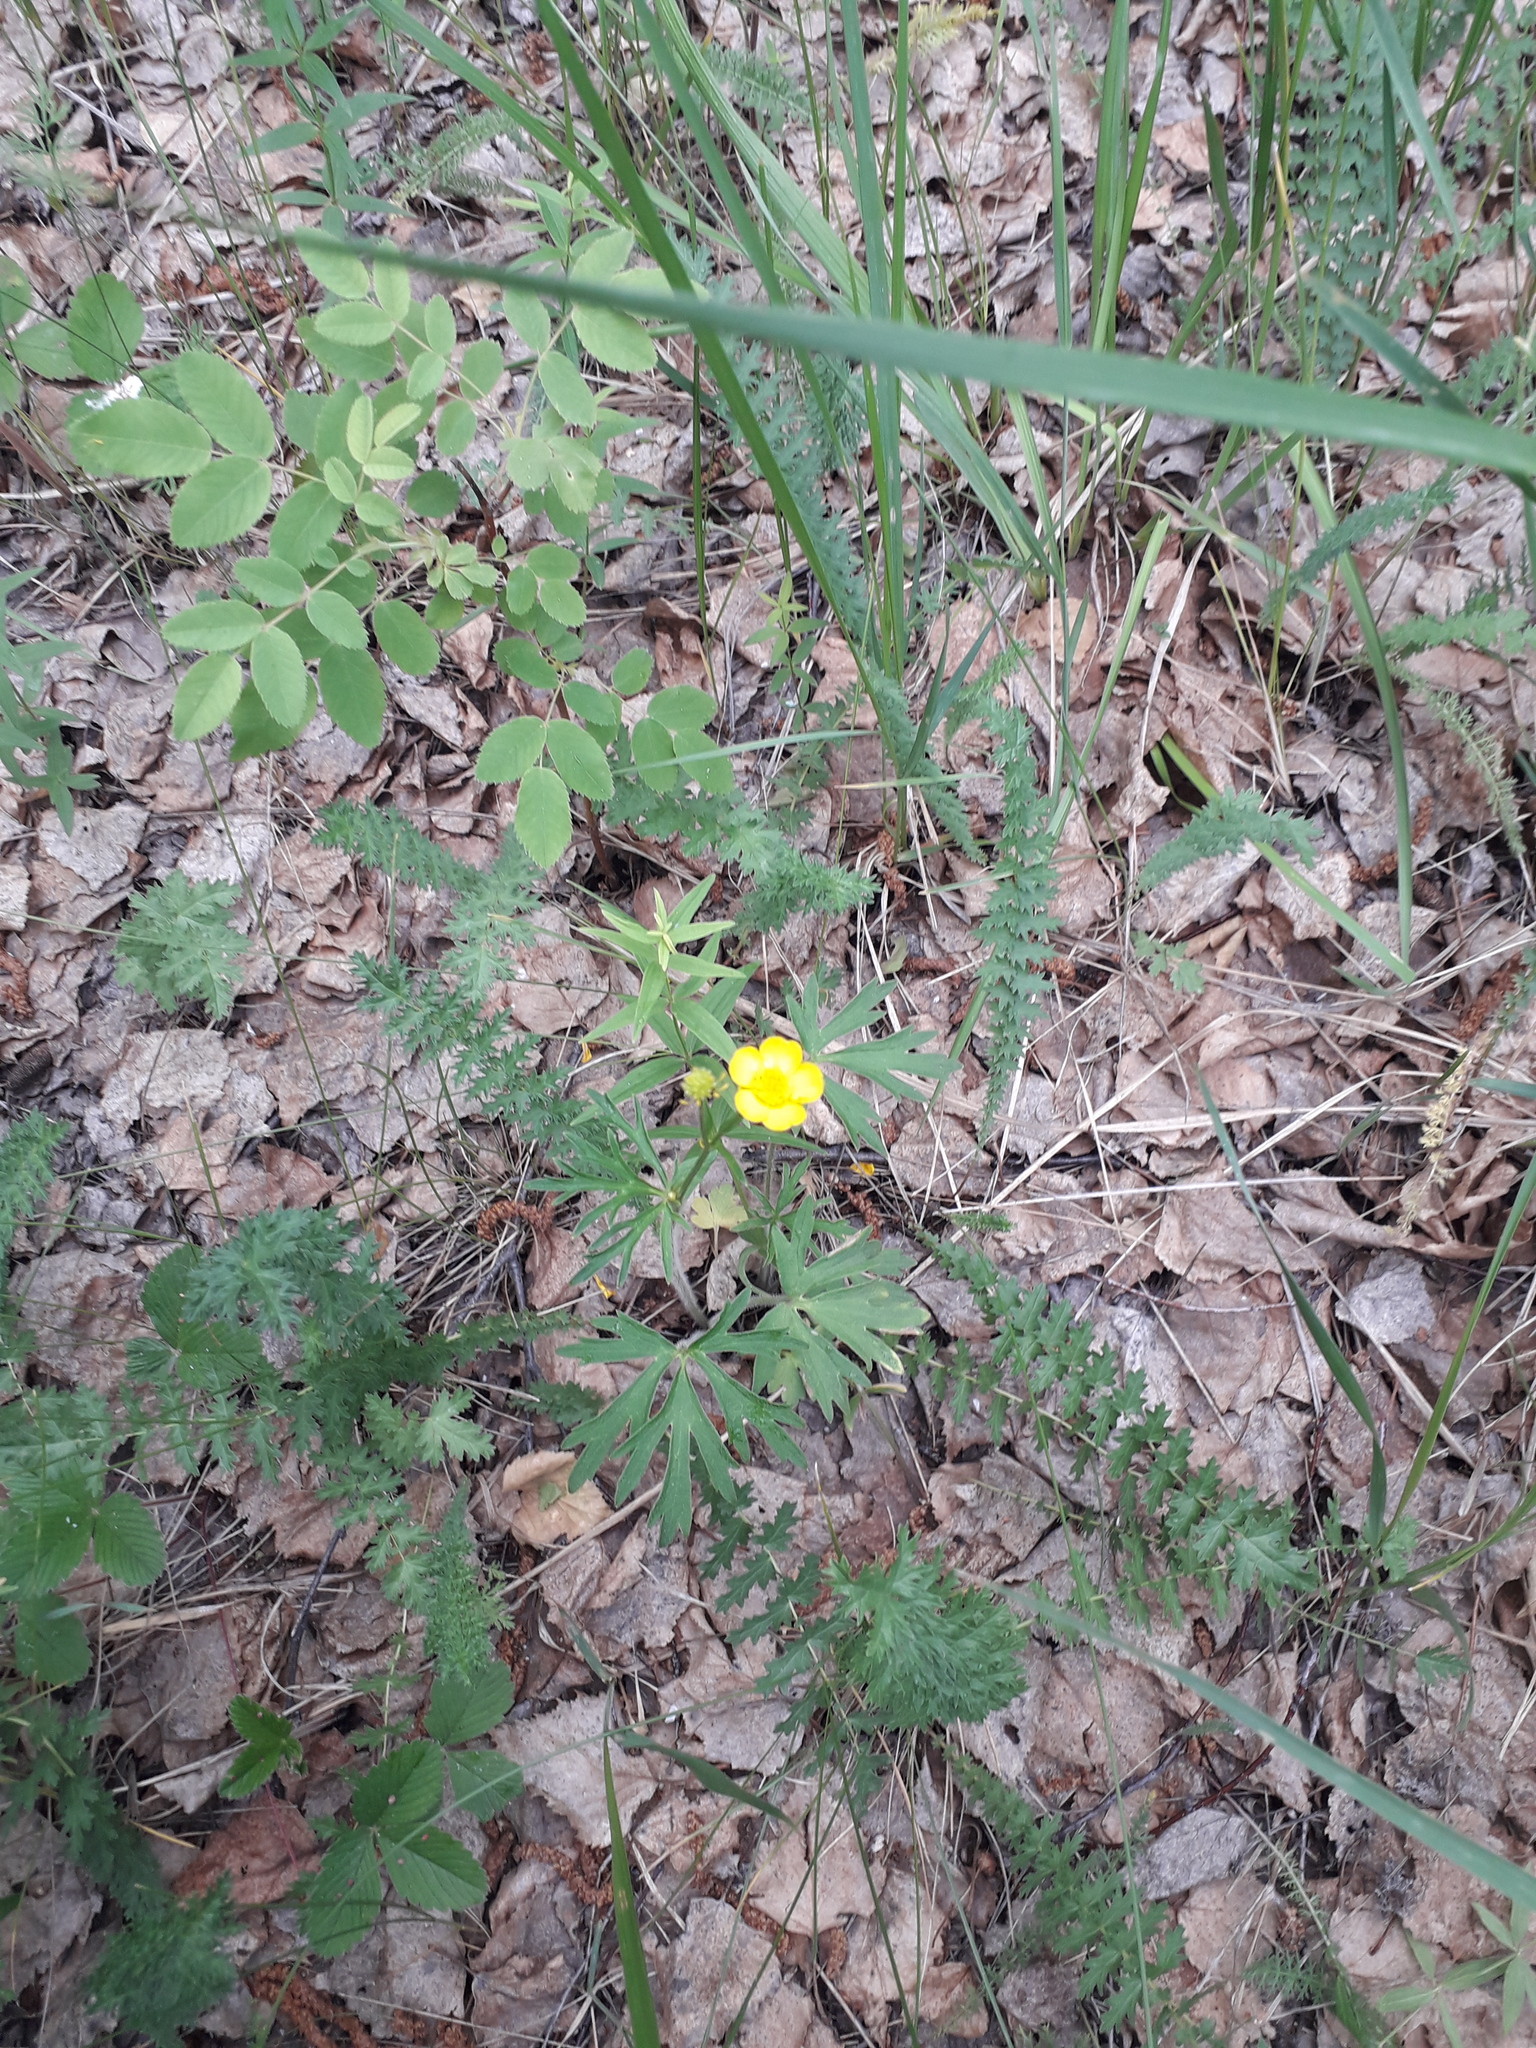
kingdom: Plantae
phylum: Tracheophyta
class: Magnoliopsida
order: Ranunculales
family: Ranunculaceae
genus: Ranunculus
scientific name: Ranunculus polyanthemos
